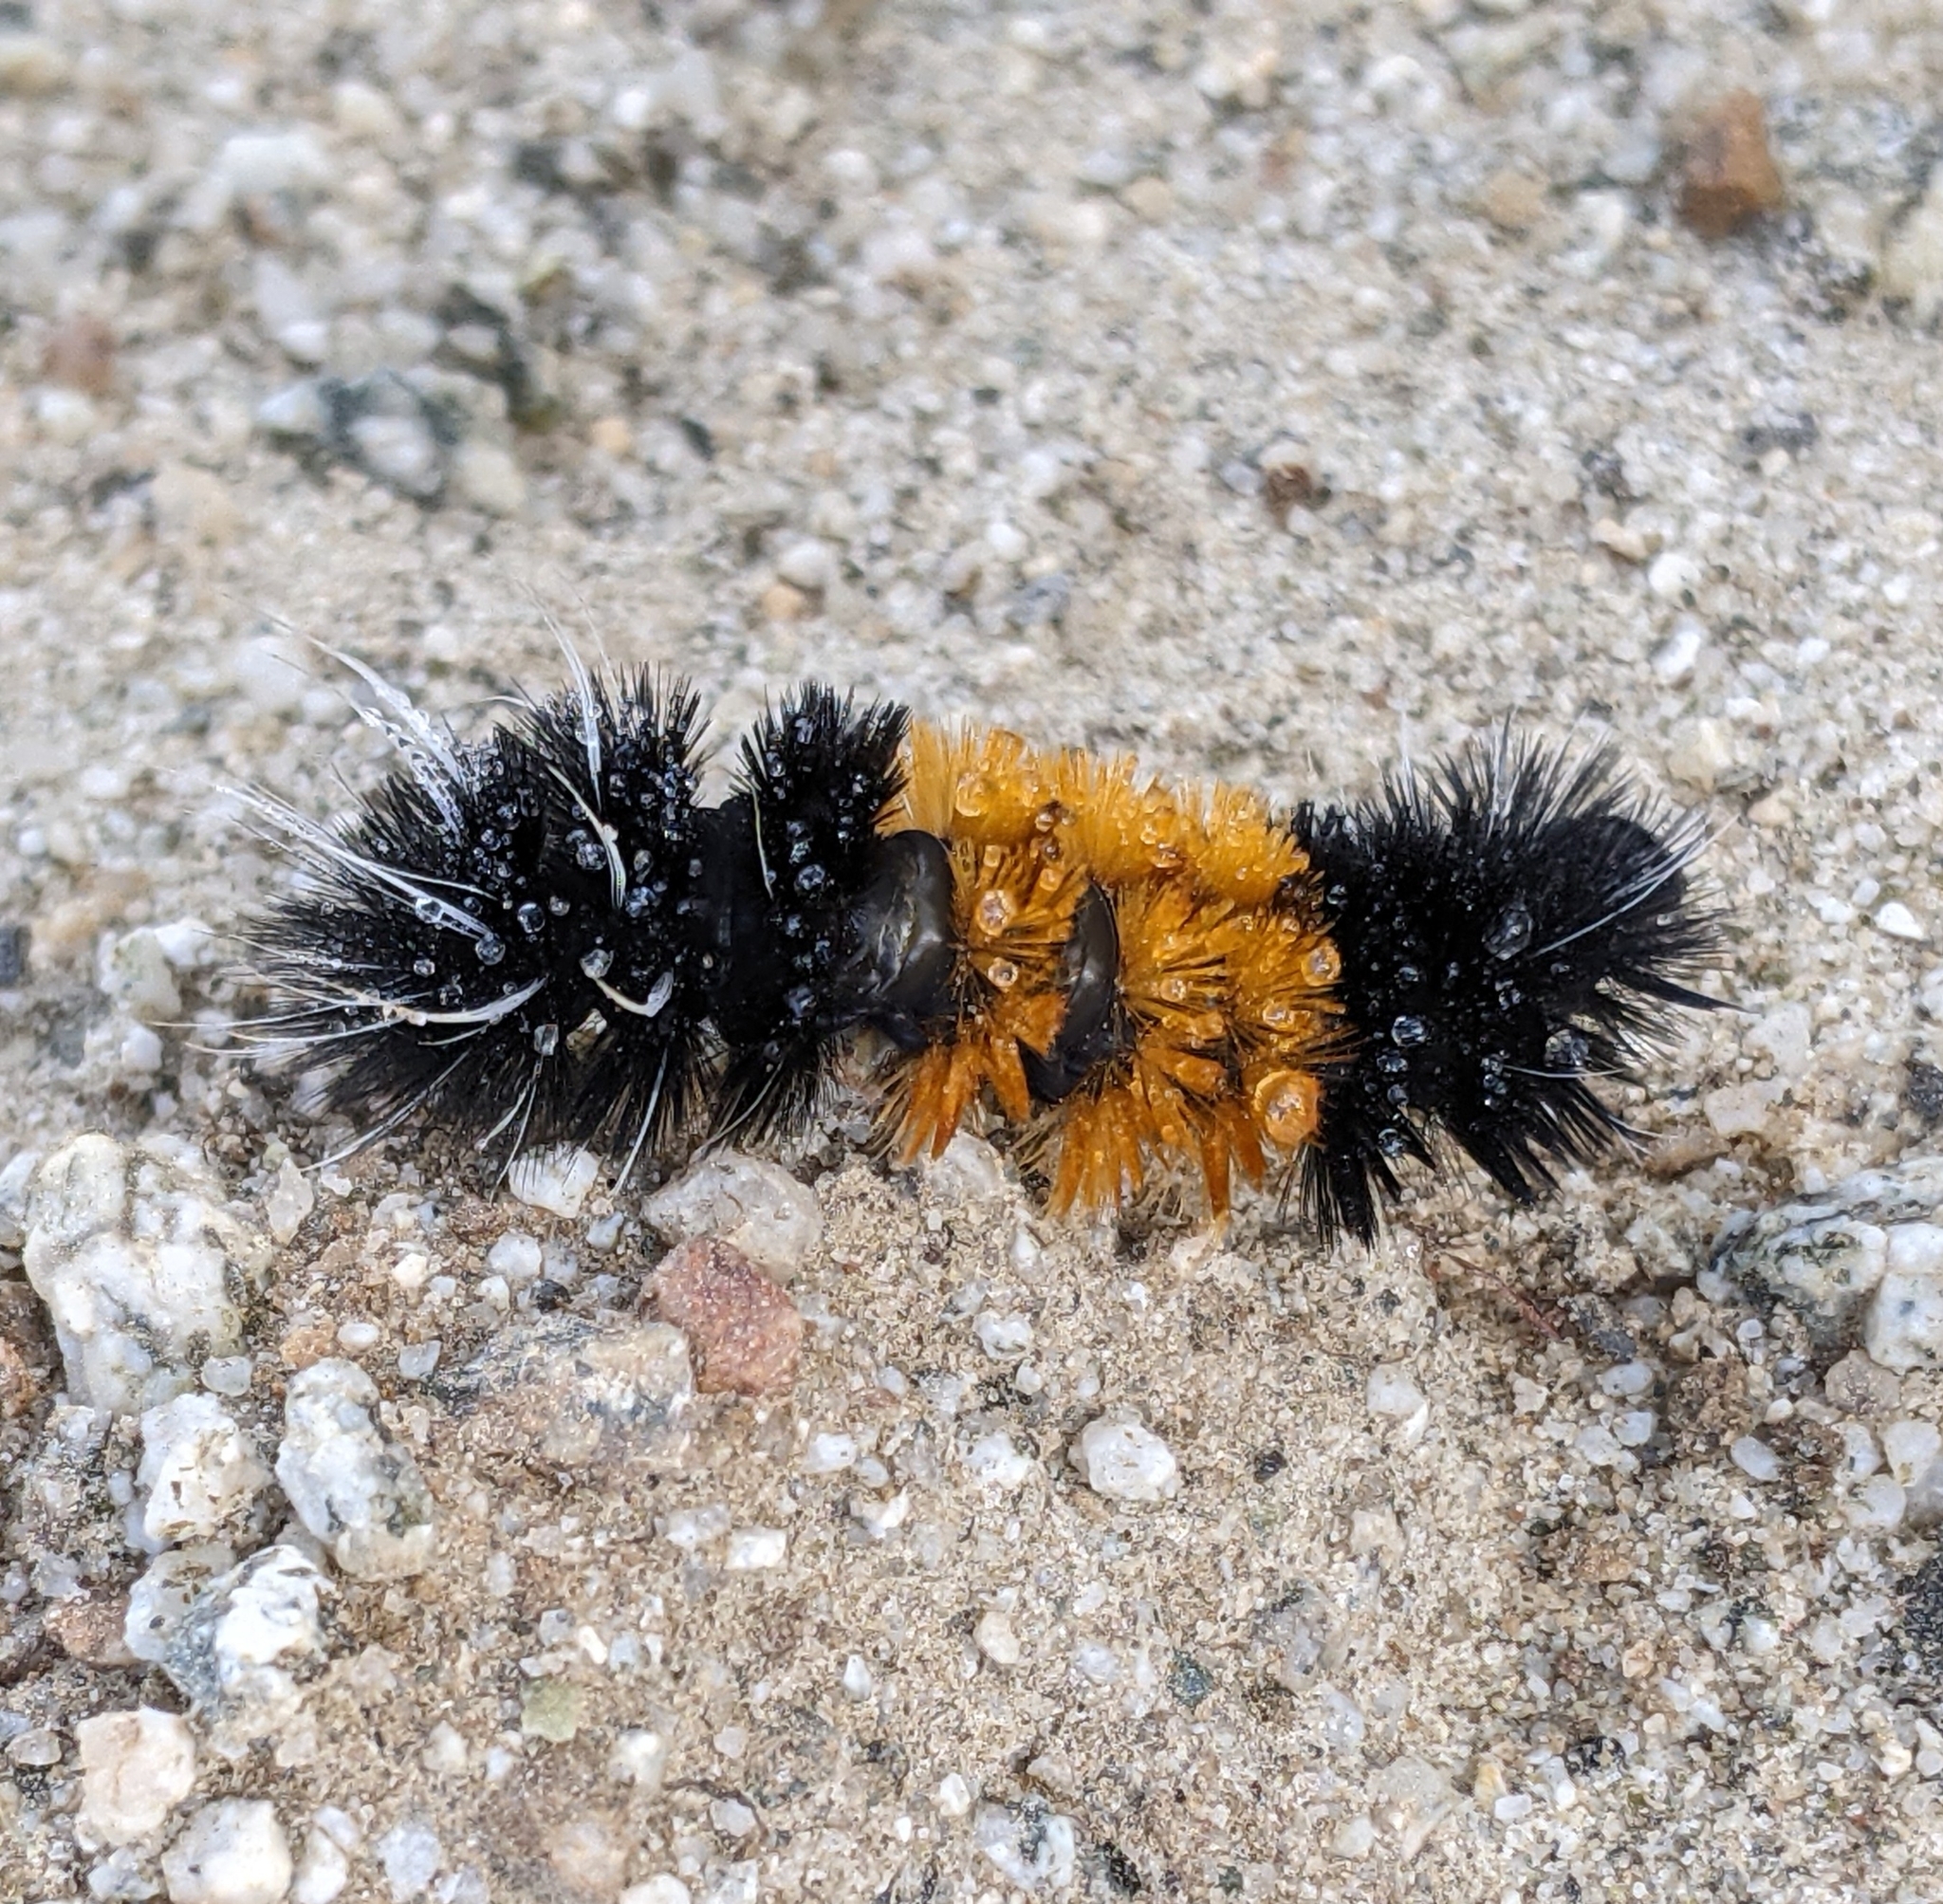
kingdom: Animalia
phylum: Arthropoda
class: Insecta
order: Lepidoptera
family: Erebidae
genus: Lophocampa
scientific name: Lophocampa maculata
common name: Spotted tussock moth
